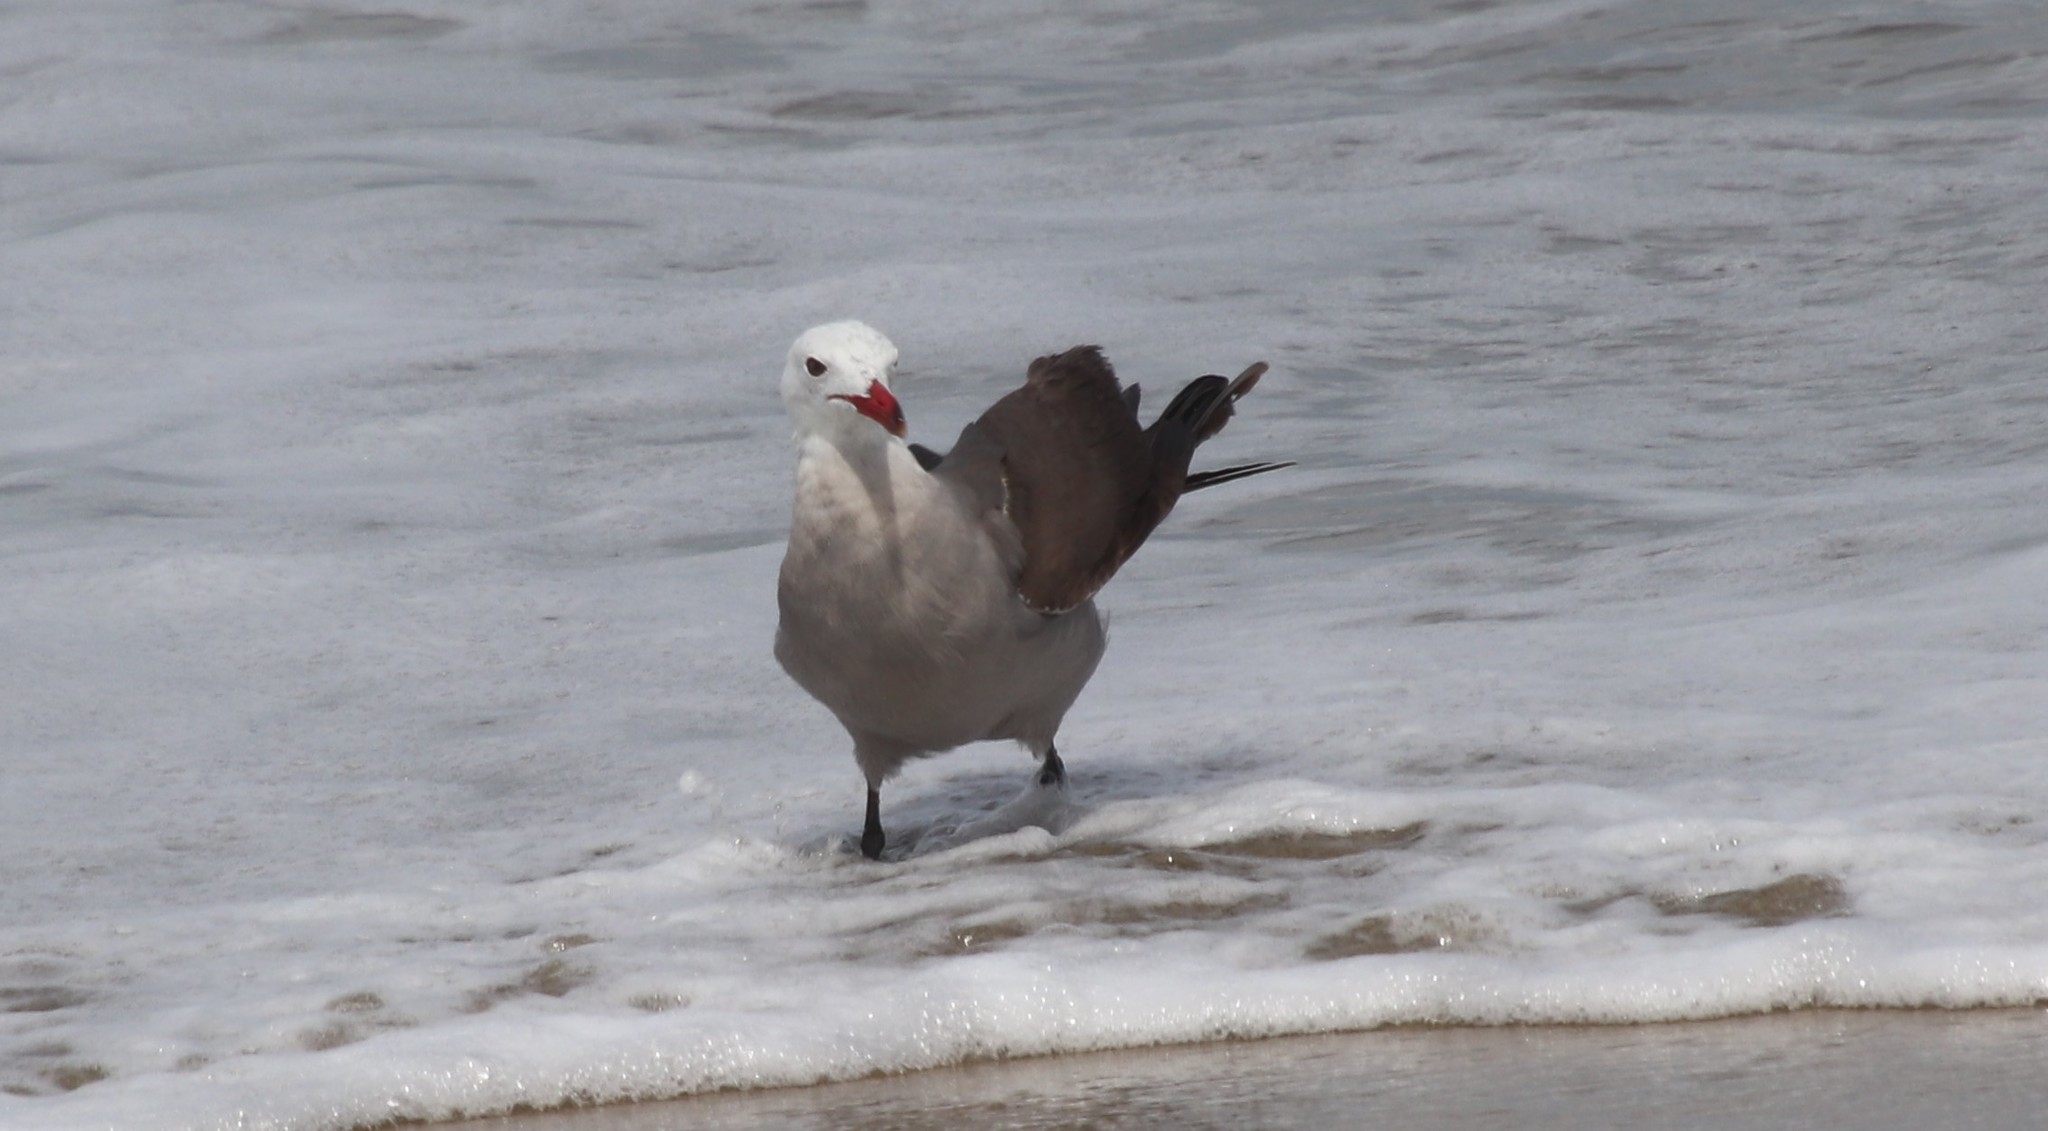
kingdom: Animalia
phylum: Chordata
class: Aves
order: Charadriiformes
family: Laridae
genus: Larus
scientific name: Larus heermanni
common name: Heermann's gull
